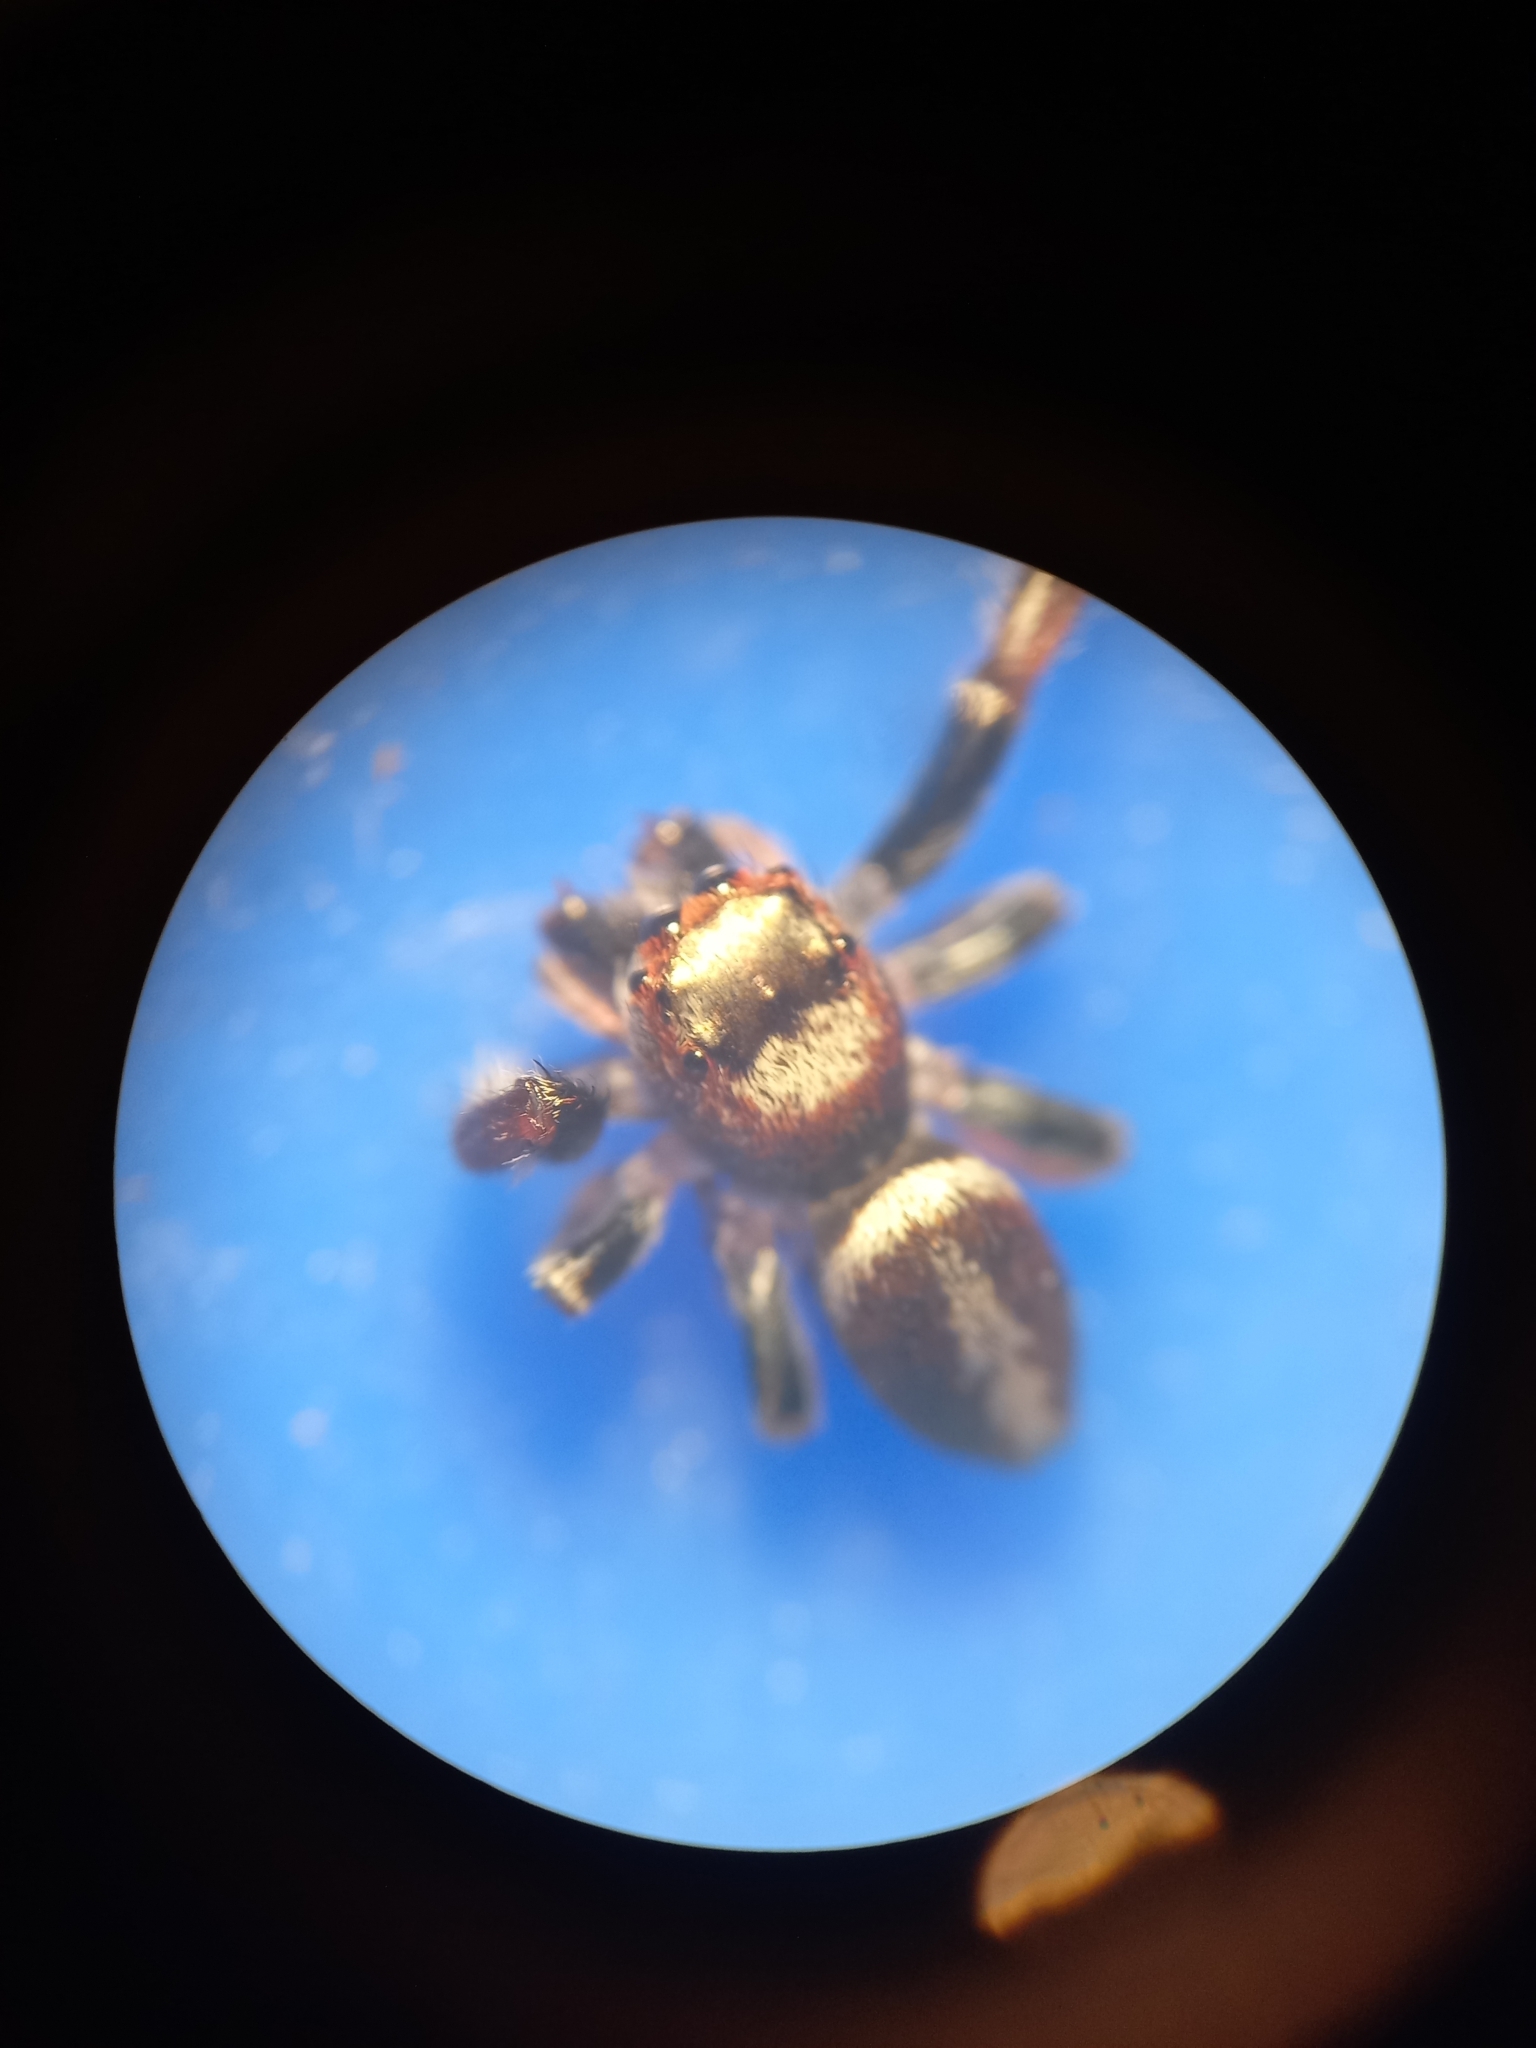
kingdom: Animalia
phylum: Arthropoda
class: Arachnida
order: Araneae
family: Salticidae
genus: Opisthoncus
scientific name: Opisthoncus polyphemus
